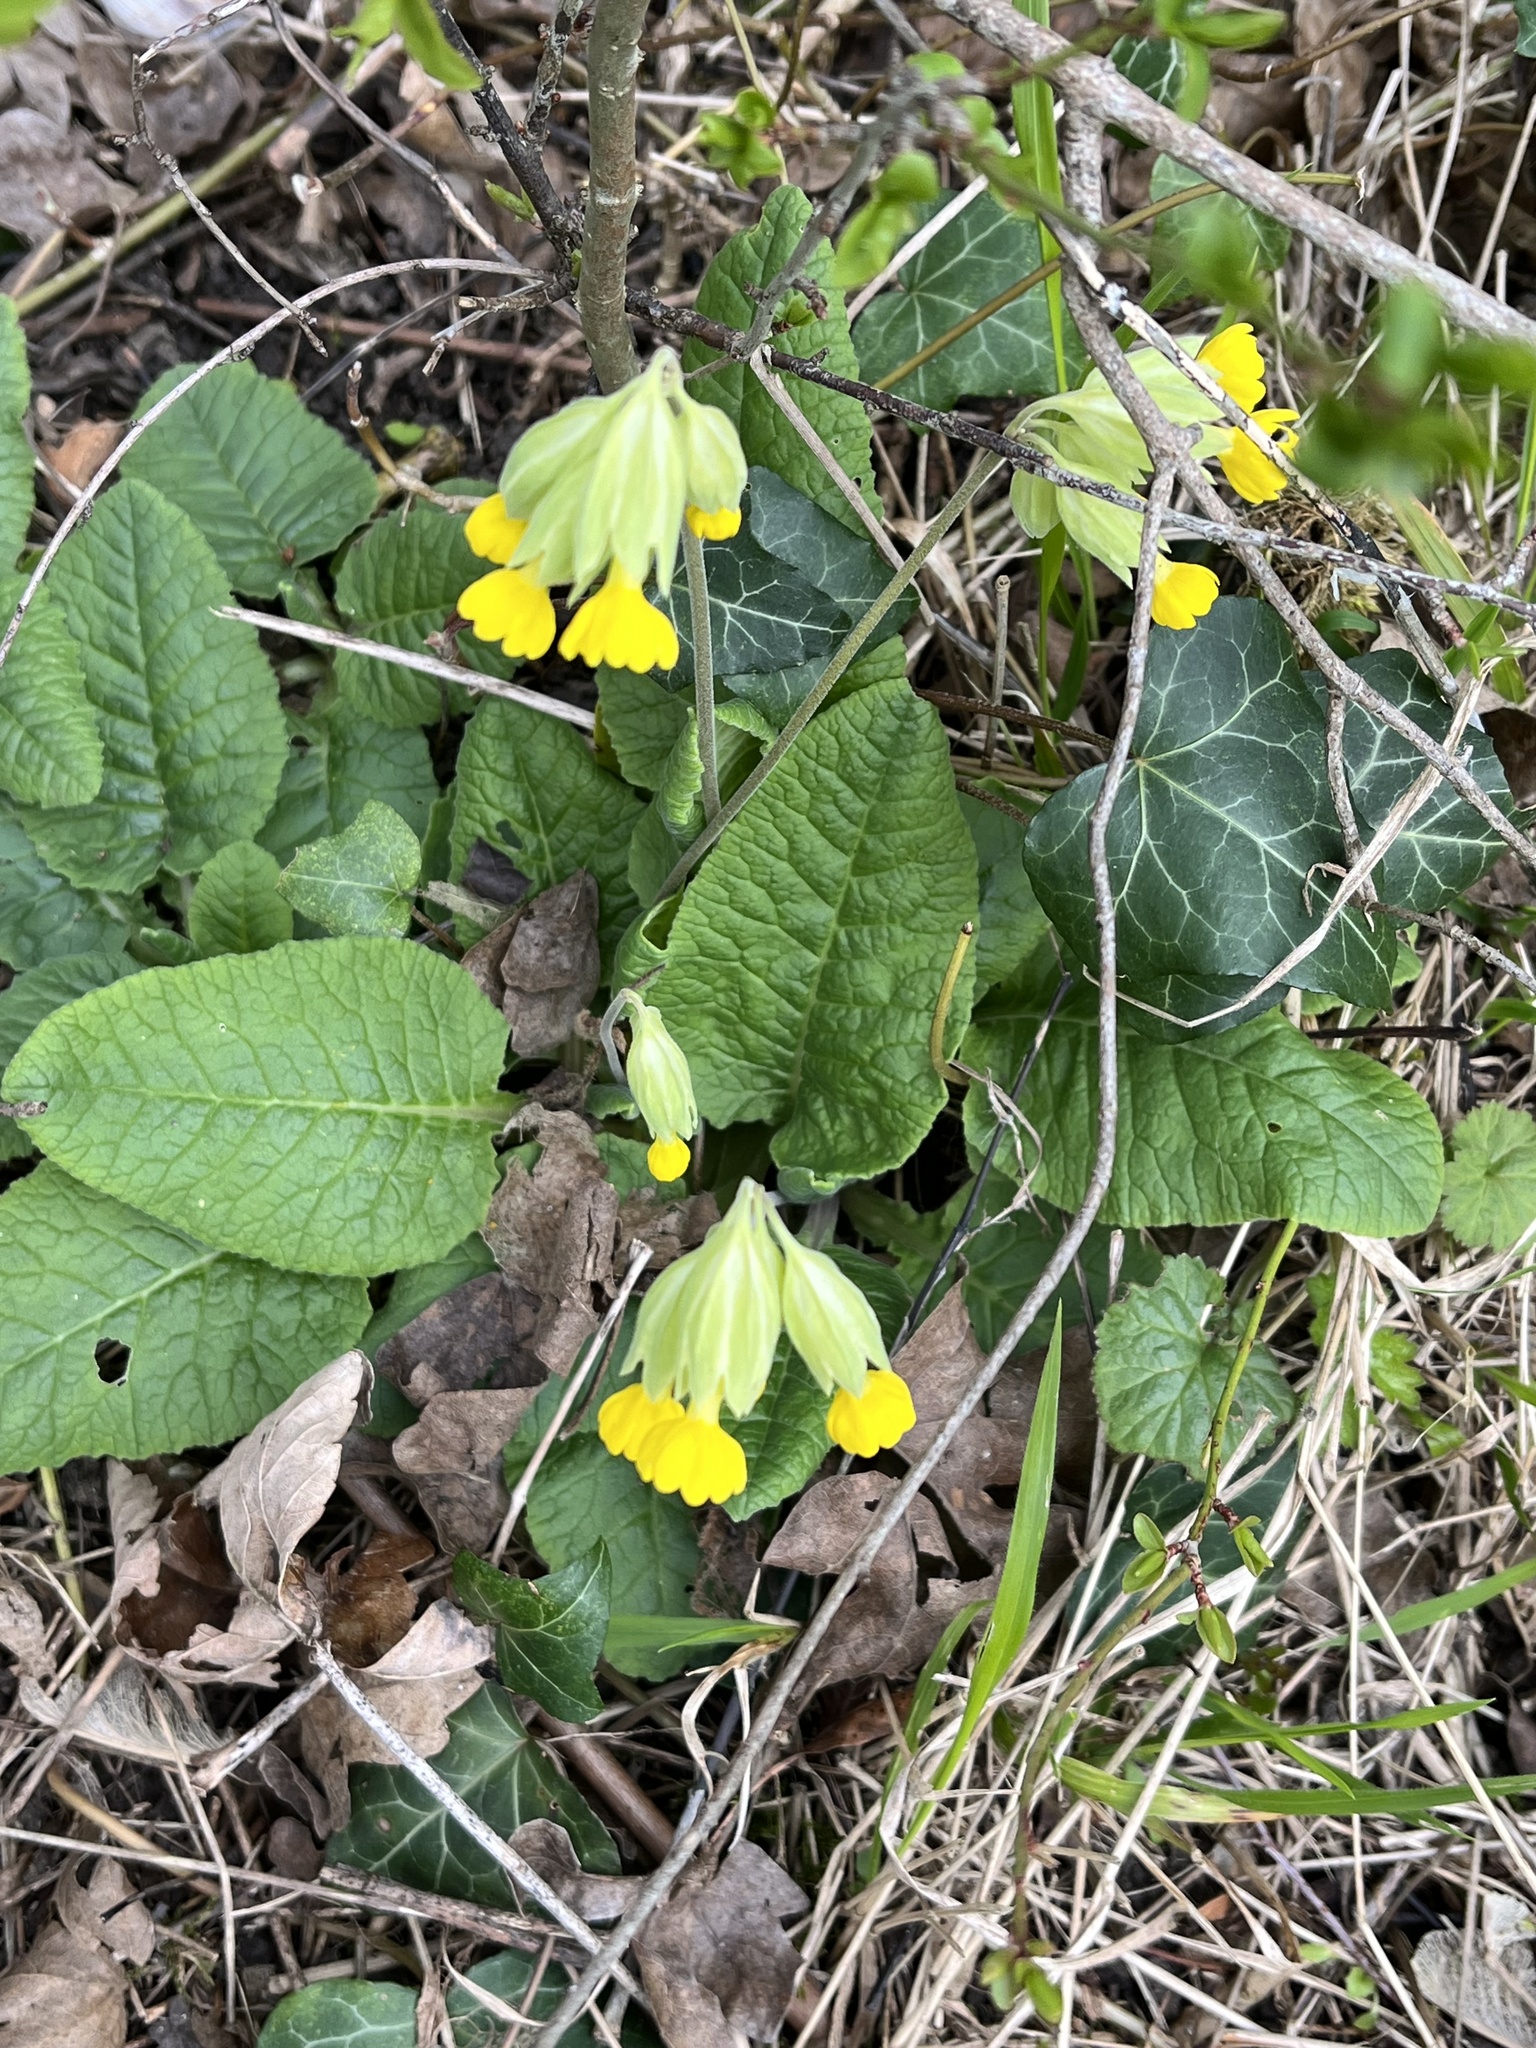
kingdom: Plantae
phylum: Tracheophyta
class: Magnoliopsida
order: Ericales
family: Primulaceae
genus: Primula
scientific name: Primula veris
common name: Cowslip
